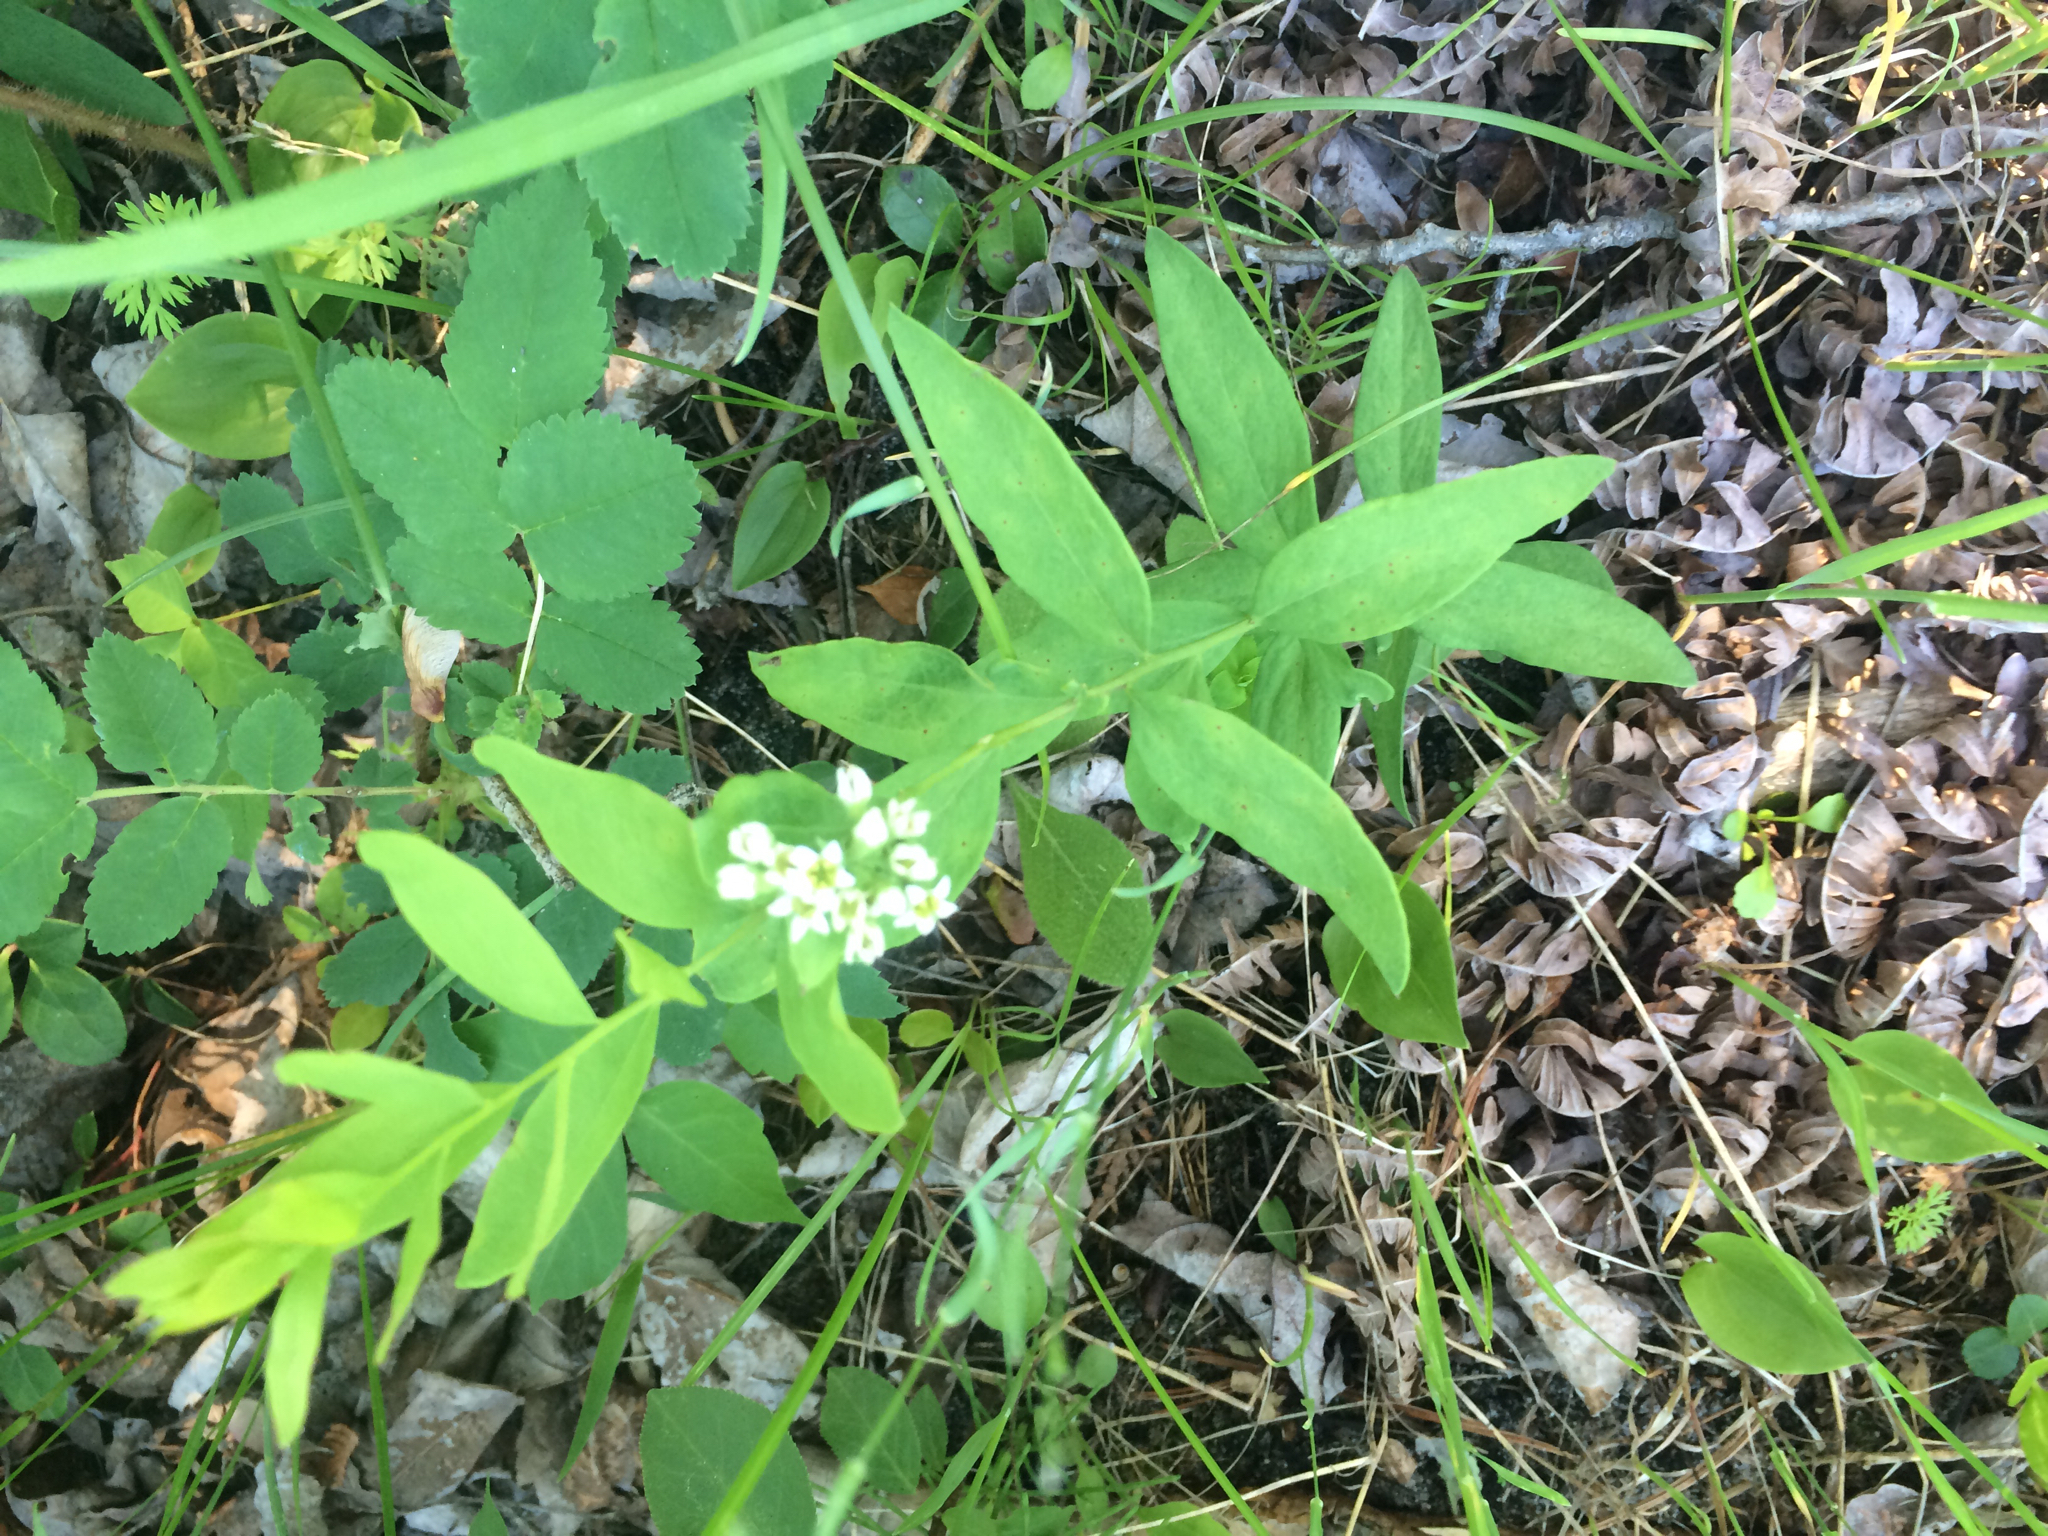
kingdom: Plantae
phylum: Tracheophyta
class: Magnoliopsida
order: Santalales
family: Comandraceae
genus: Comandra
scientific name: Comandra umbellata
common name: Bastard toadflax
